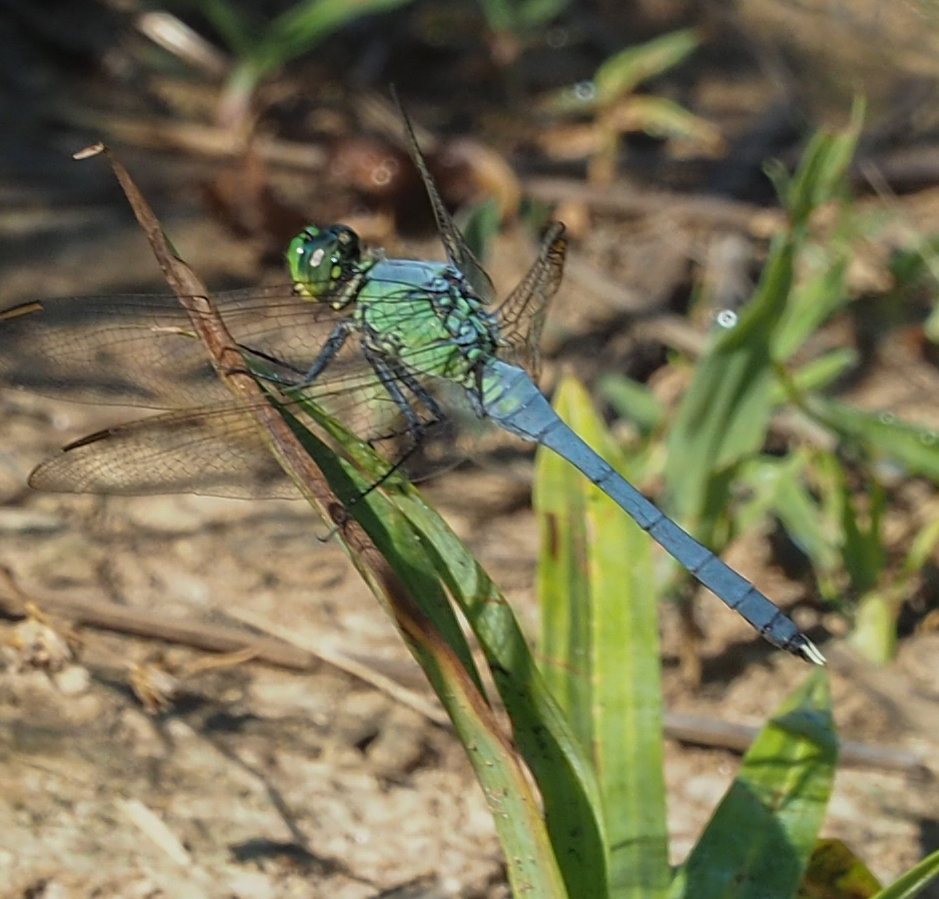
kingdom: Animalia
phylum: Arthropoda
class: Insecta
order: Odonata
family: Libellulidae
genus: Erythemis
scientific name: Erythemis simplicicollis
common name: Eastern pondhawk
